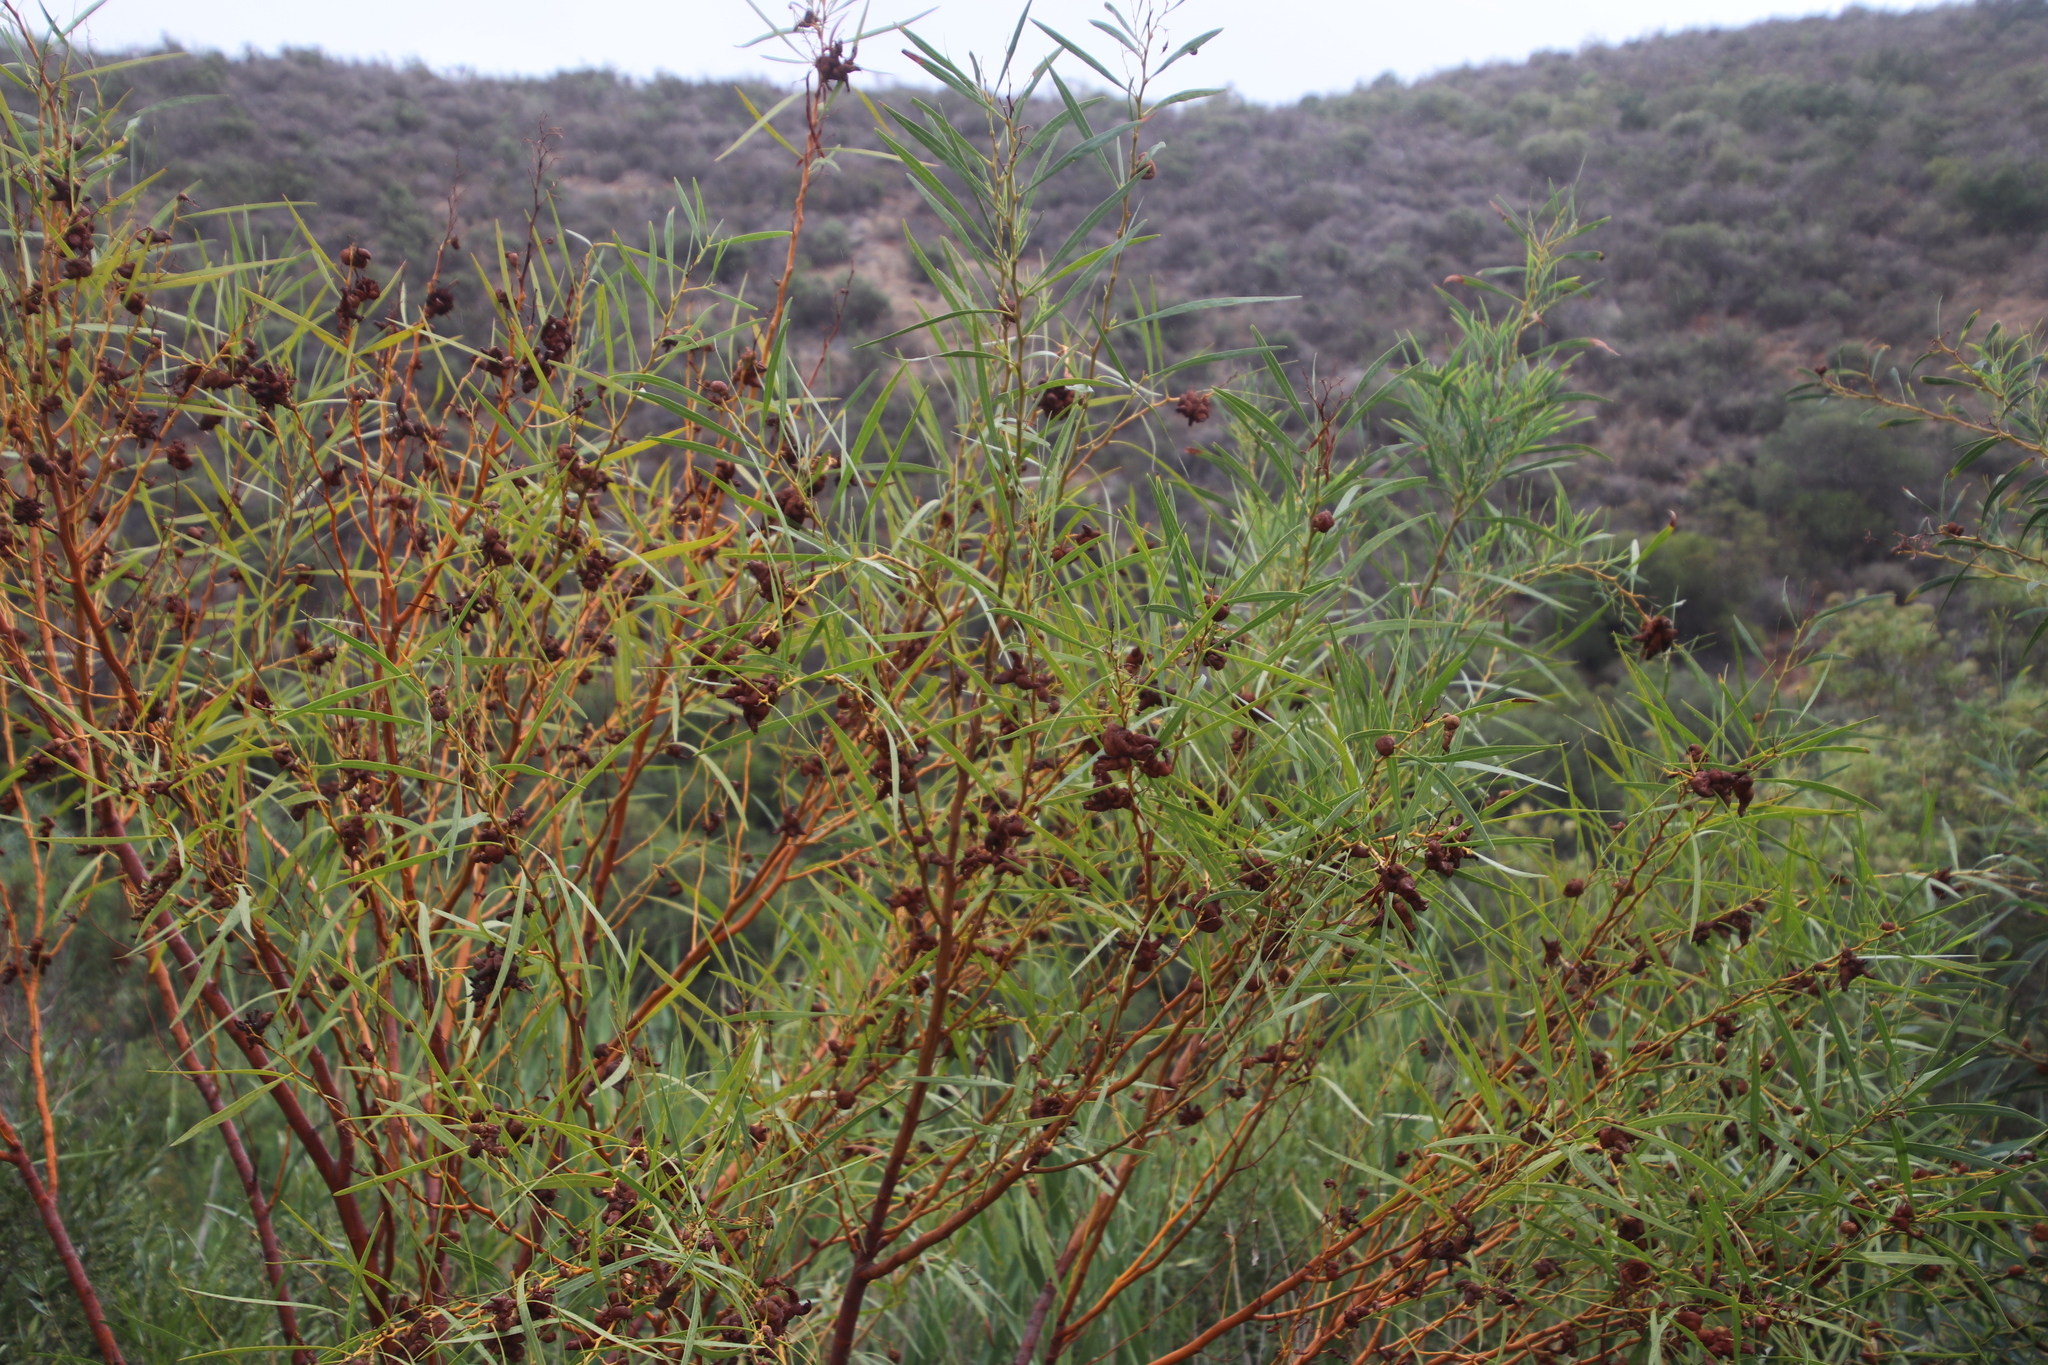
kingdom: Plantae
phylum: Tracheophyta
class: Magnoliopsida
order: Fabales
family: Fabaceae
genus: Acacia
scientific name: Acacia saligna
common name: Orange wattle
